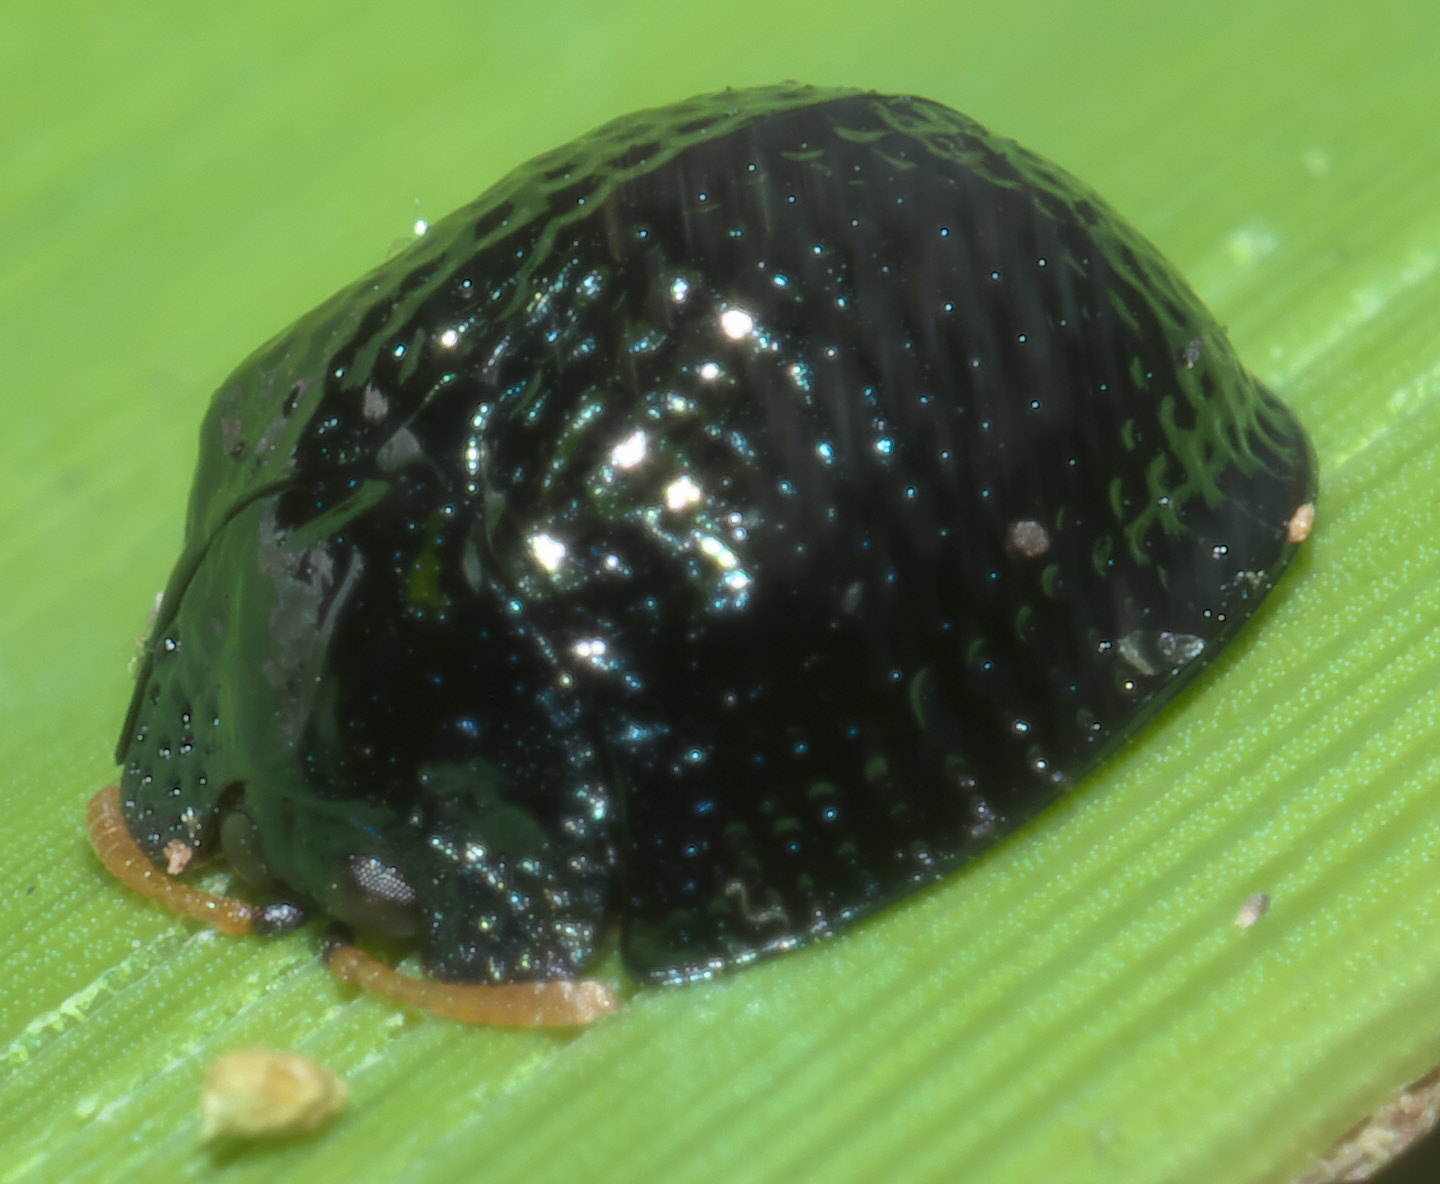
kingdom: Animalia
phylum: Arthropoda
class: Insecta
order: Coleoptera
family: Chrysomelidae
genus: Hemisphaerota
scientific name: Hemisphaerota cyanea
